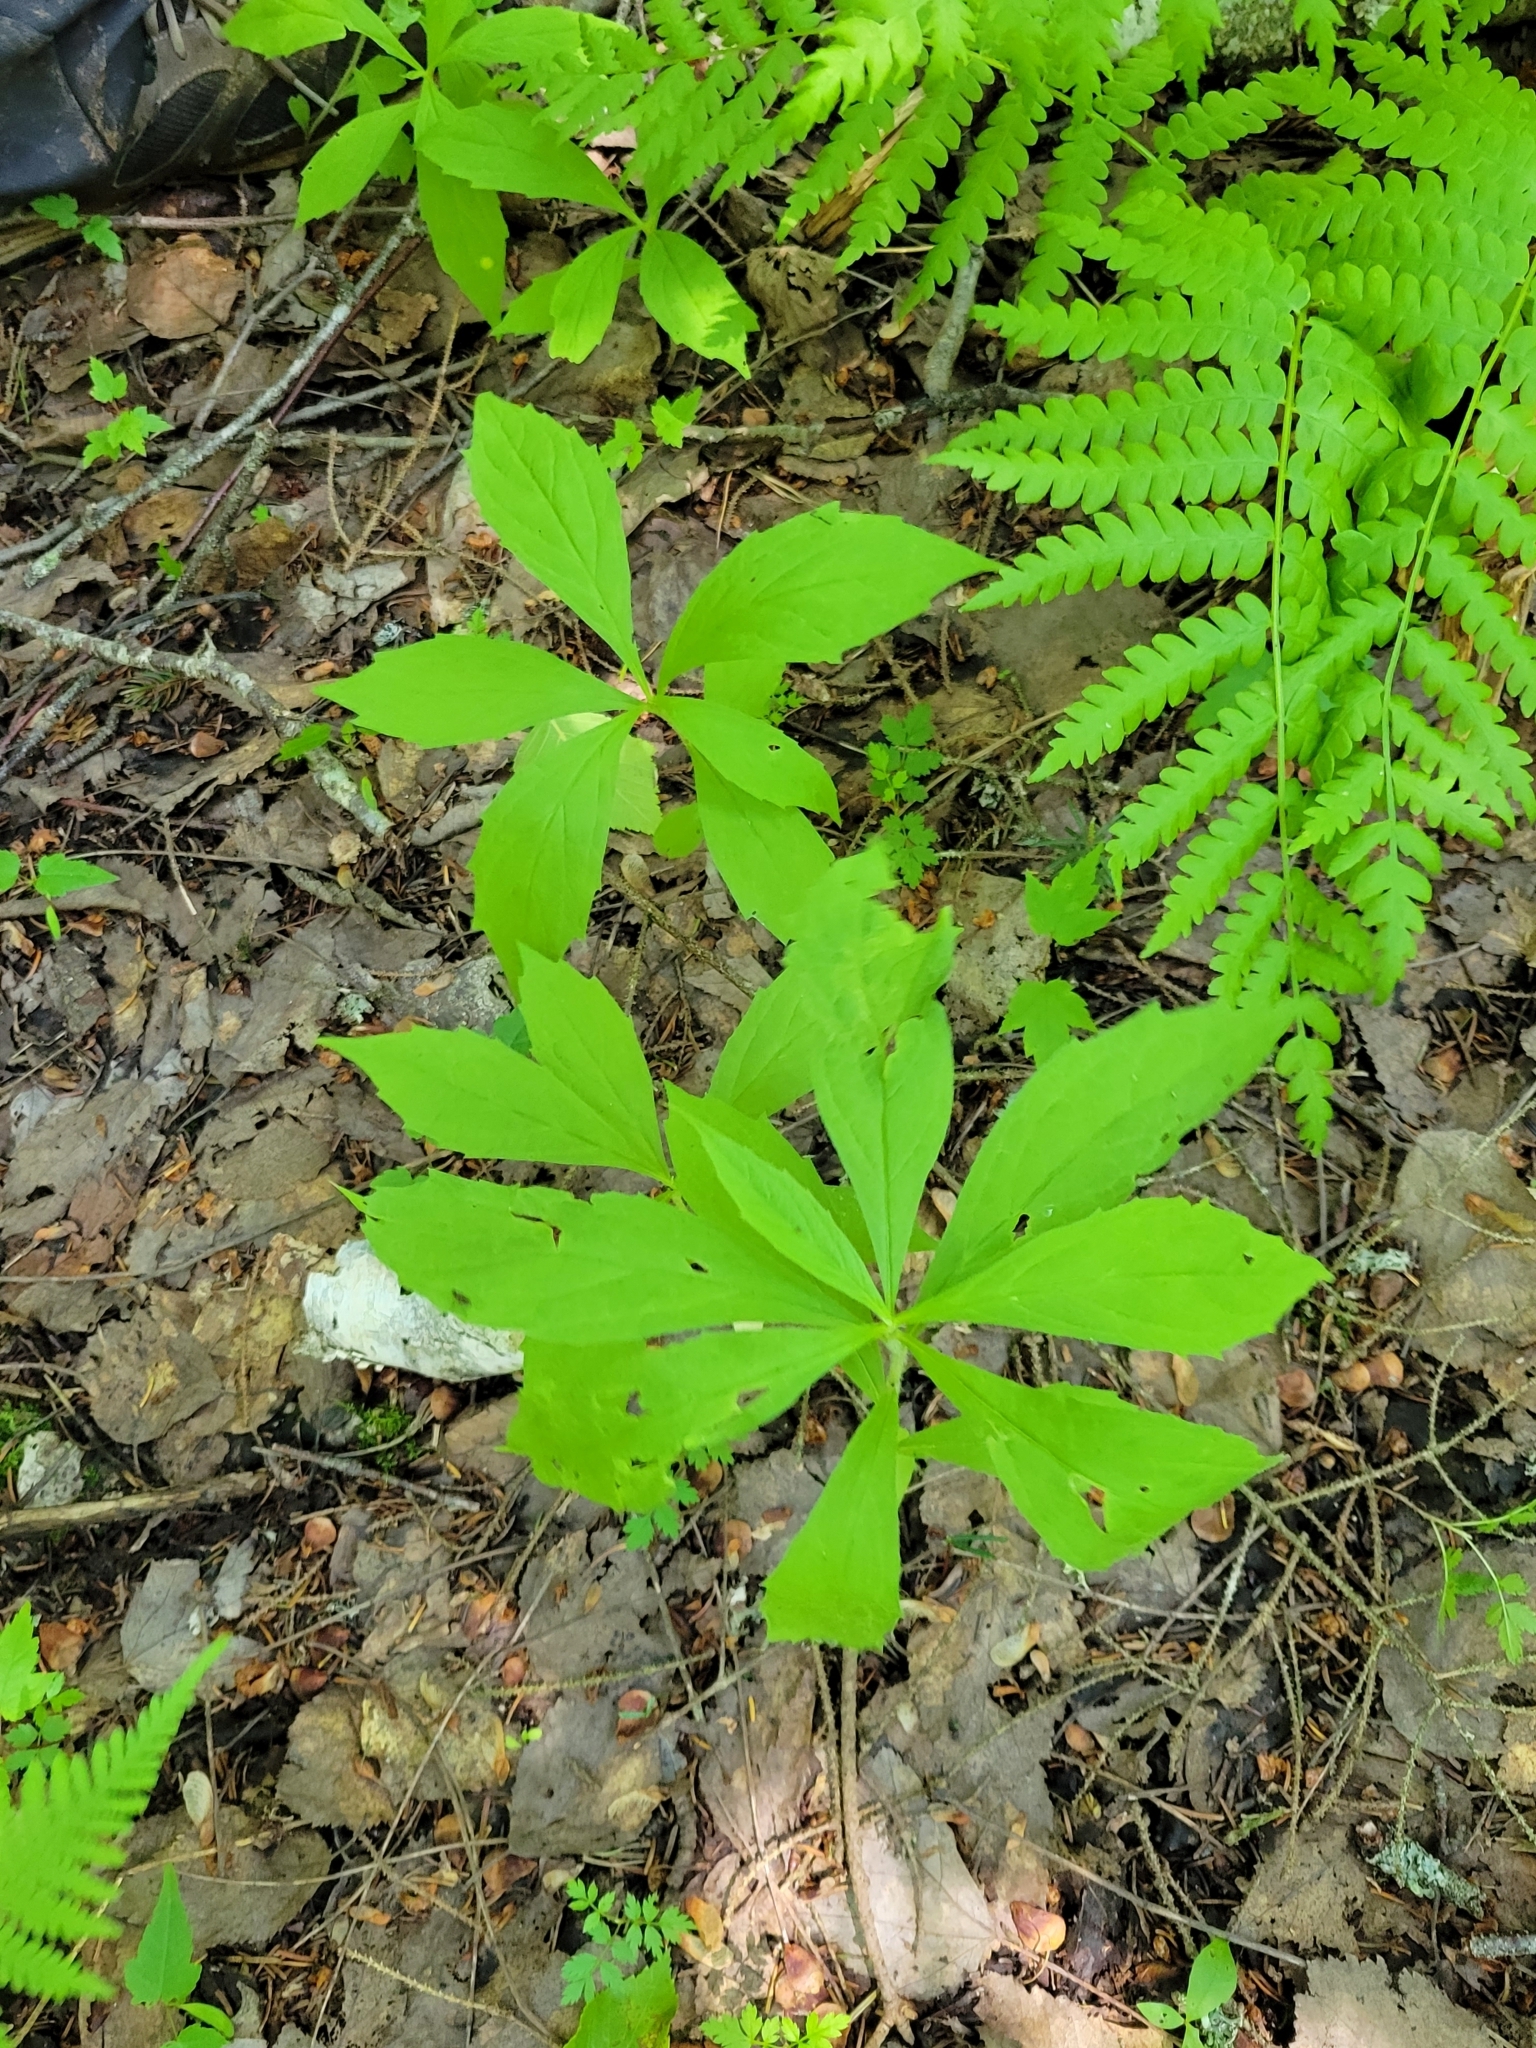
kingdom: Plantae
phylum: Tracheophyta
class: Magnoliopsida
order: Asterales
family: Asteraceae
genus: Oclemena
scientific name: Oclemena acuminata
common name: Mountain aster
